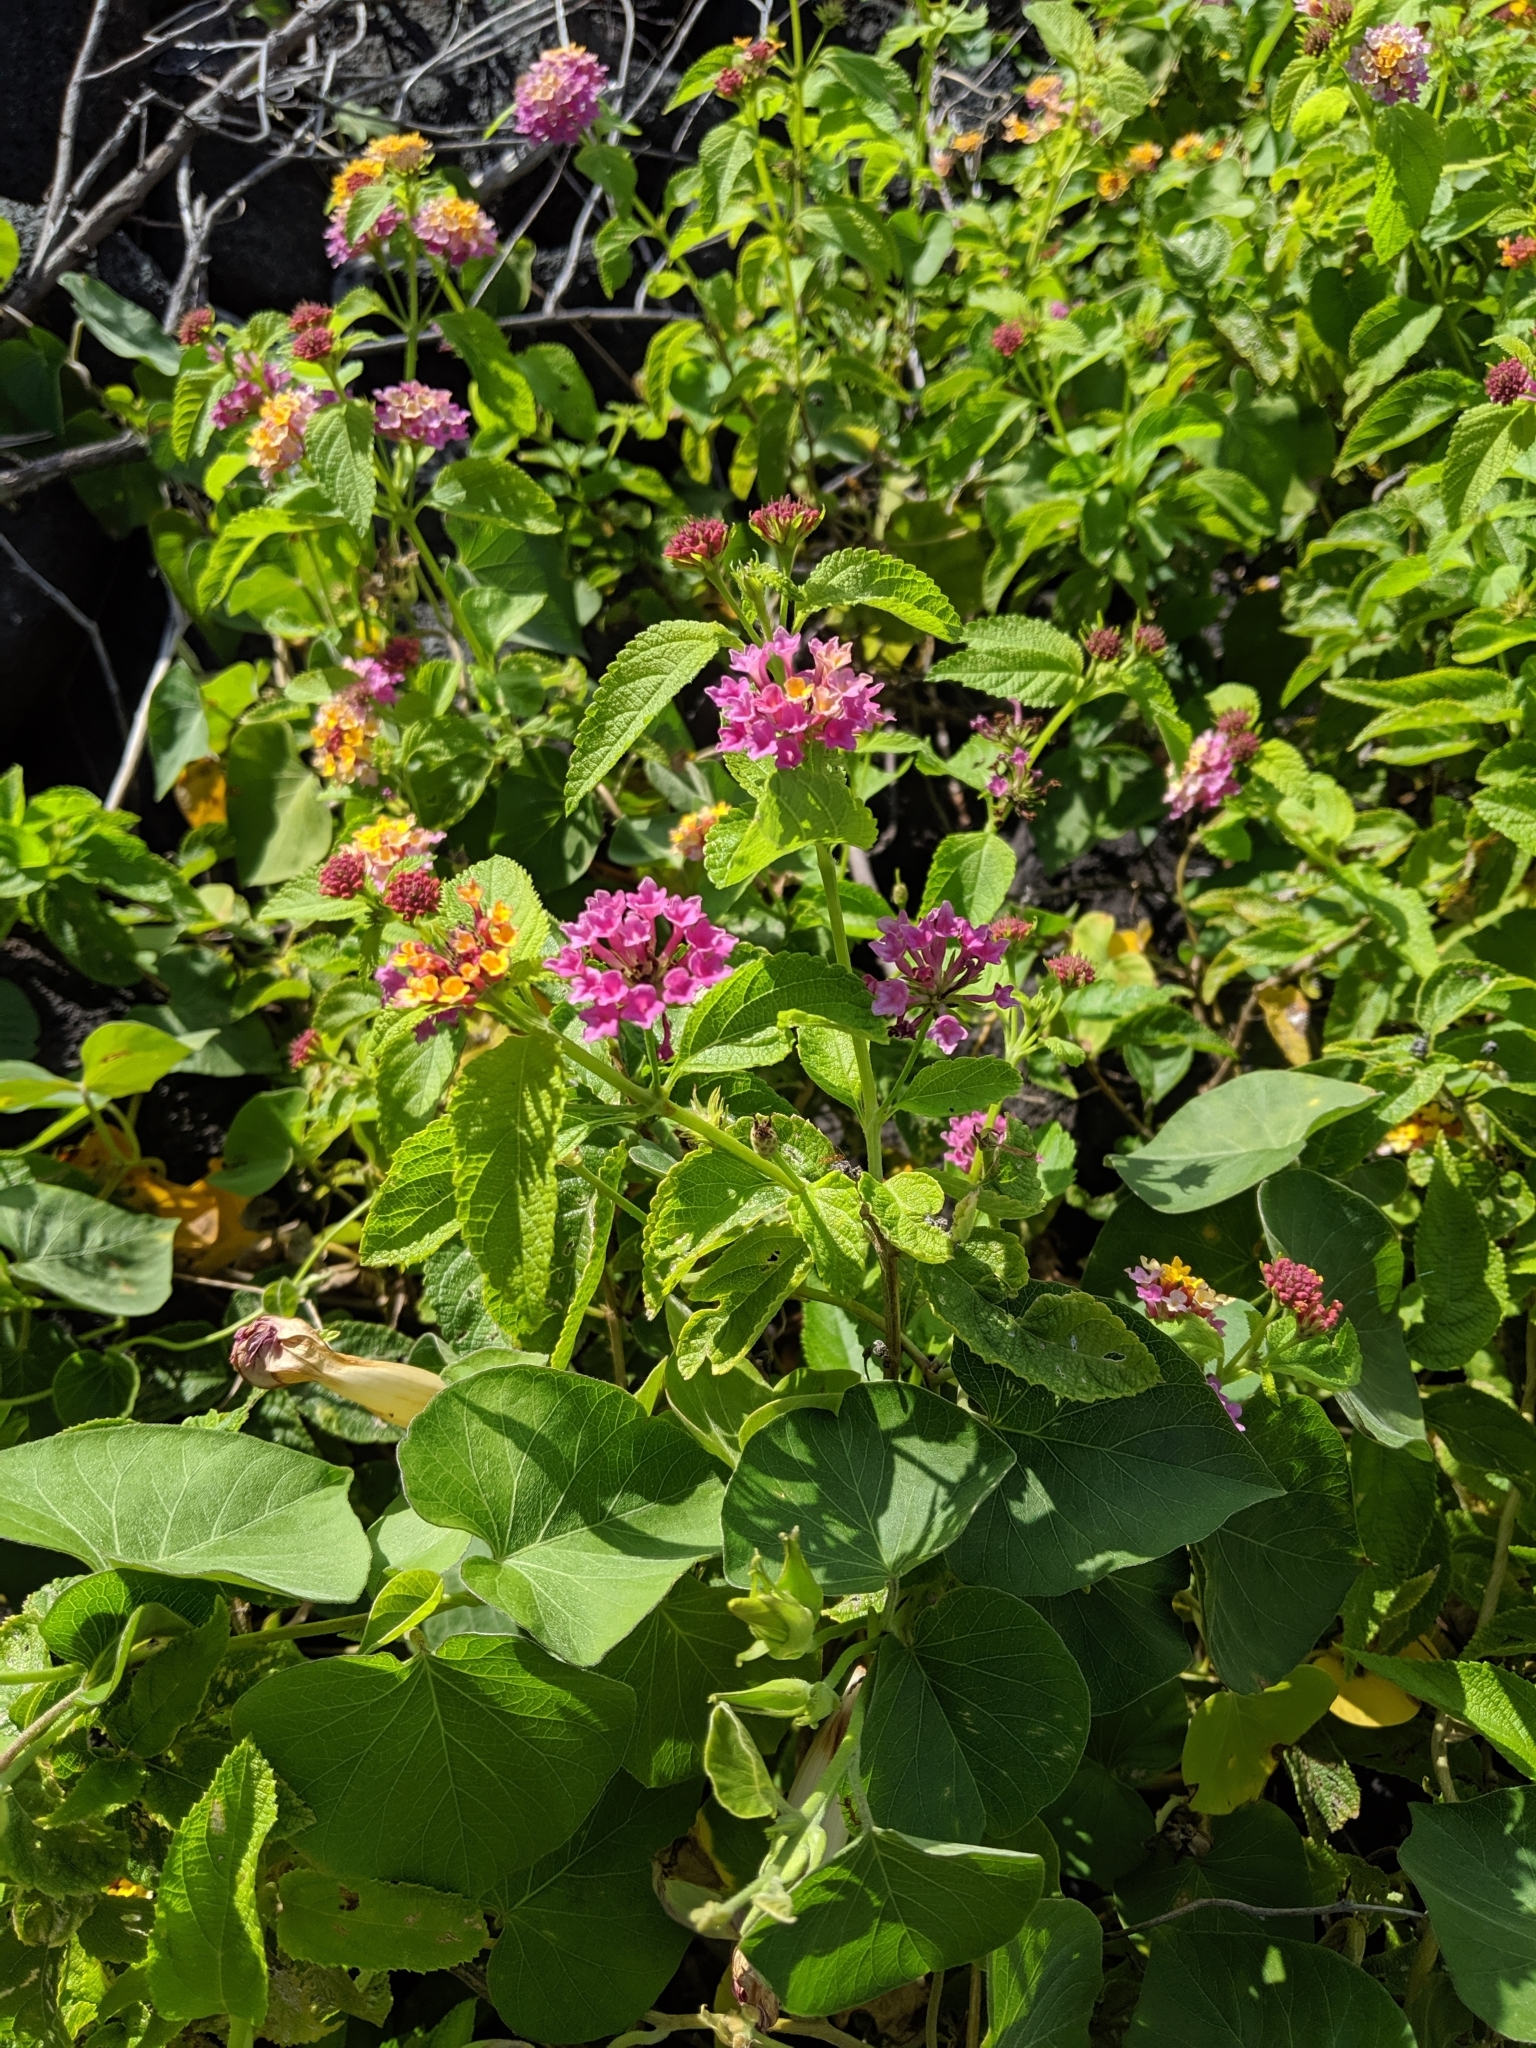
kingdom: Plantae
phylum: Tracheophyta
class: Magnoliopsida
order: Lamiales
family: Verbenaceae
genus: Lantana
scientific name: Lantana camara
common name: Lantana
